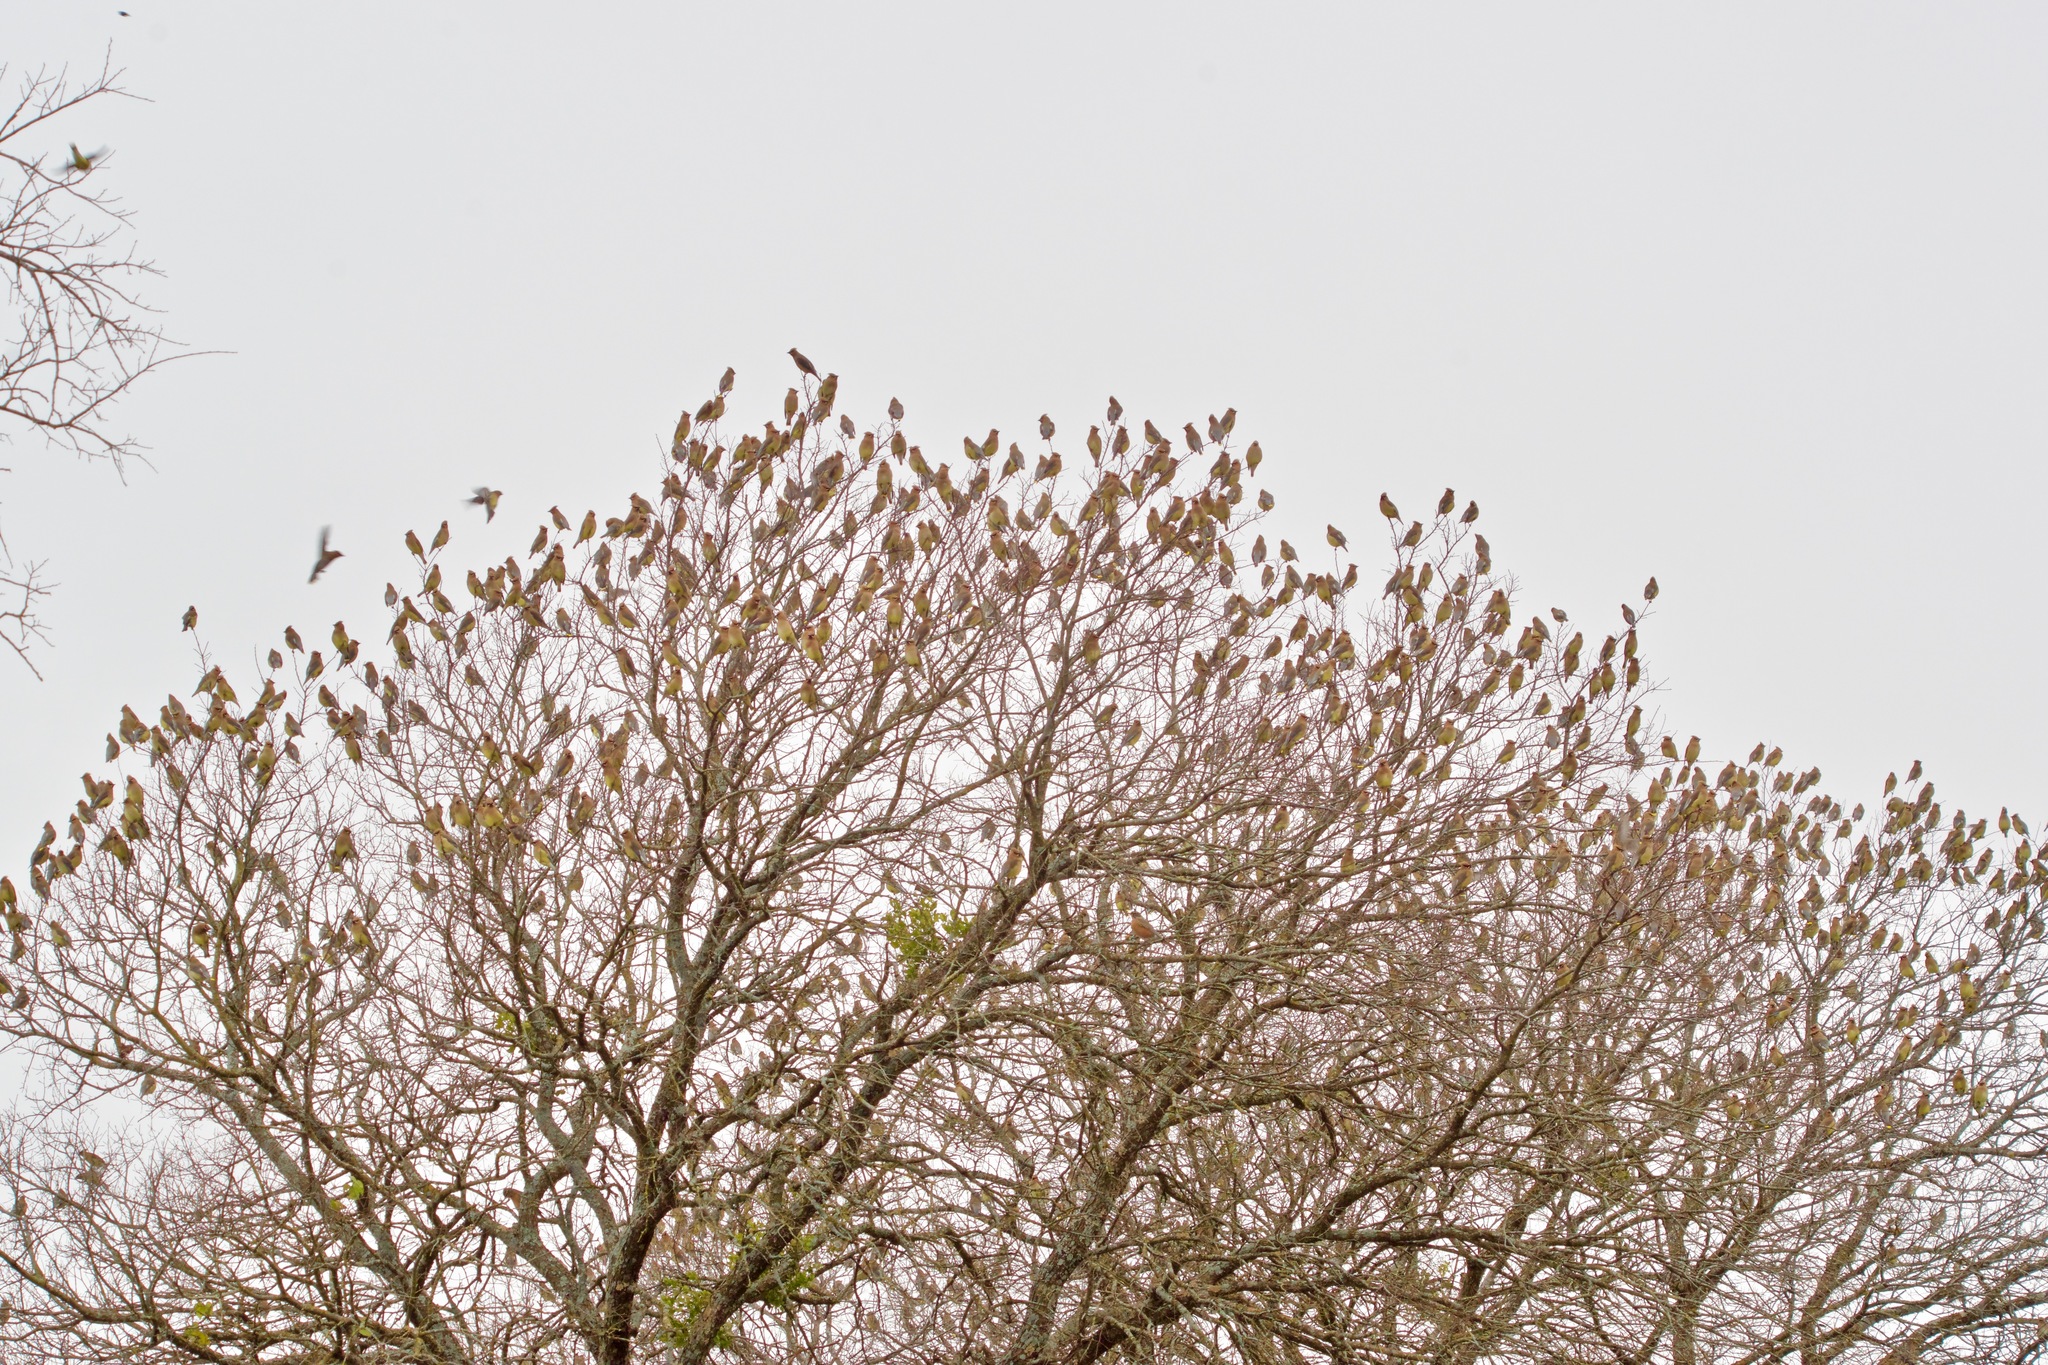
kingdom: Animalia
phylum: Chordata
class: Aves
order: Passeriformes
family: Bombycillidae
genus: Bombycilla
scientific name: Bombycilla cedrorum
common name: Cedar waxwing
